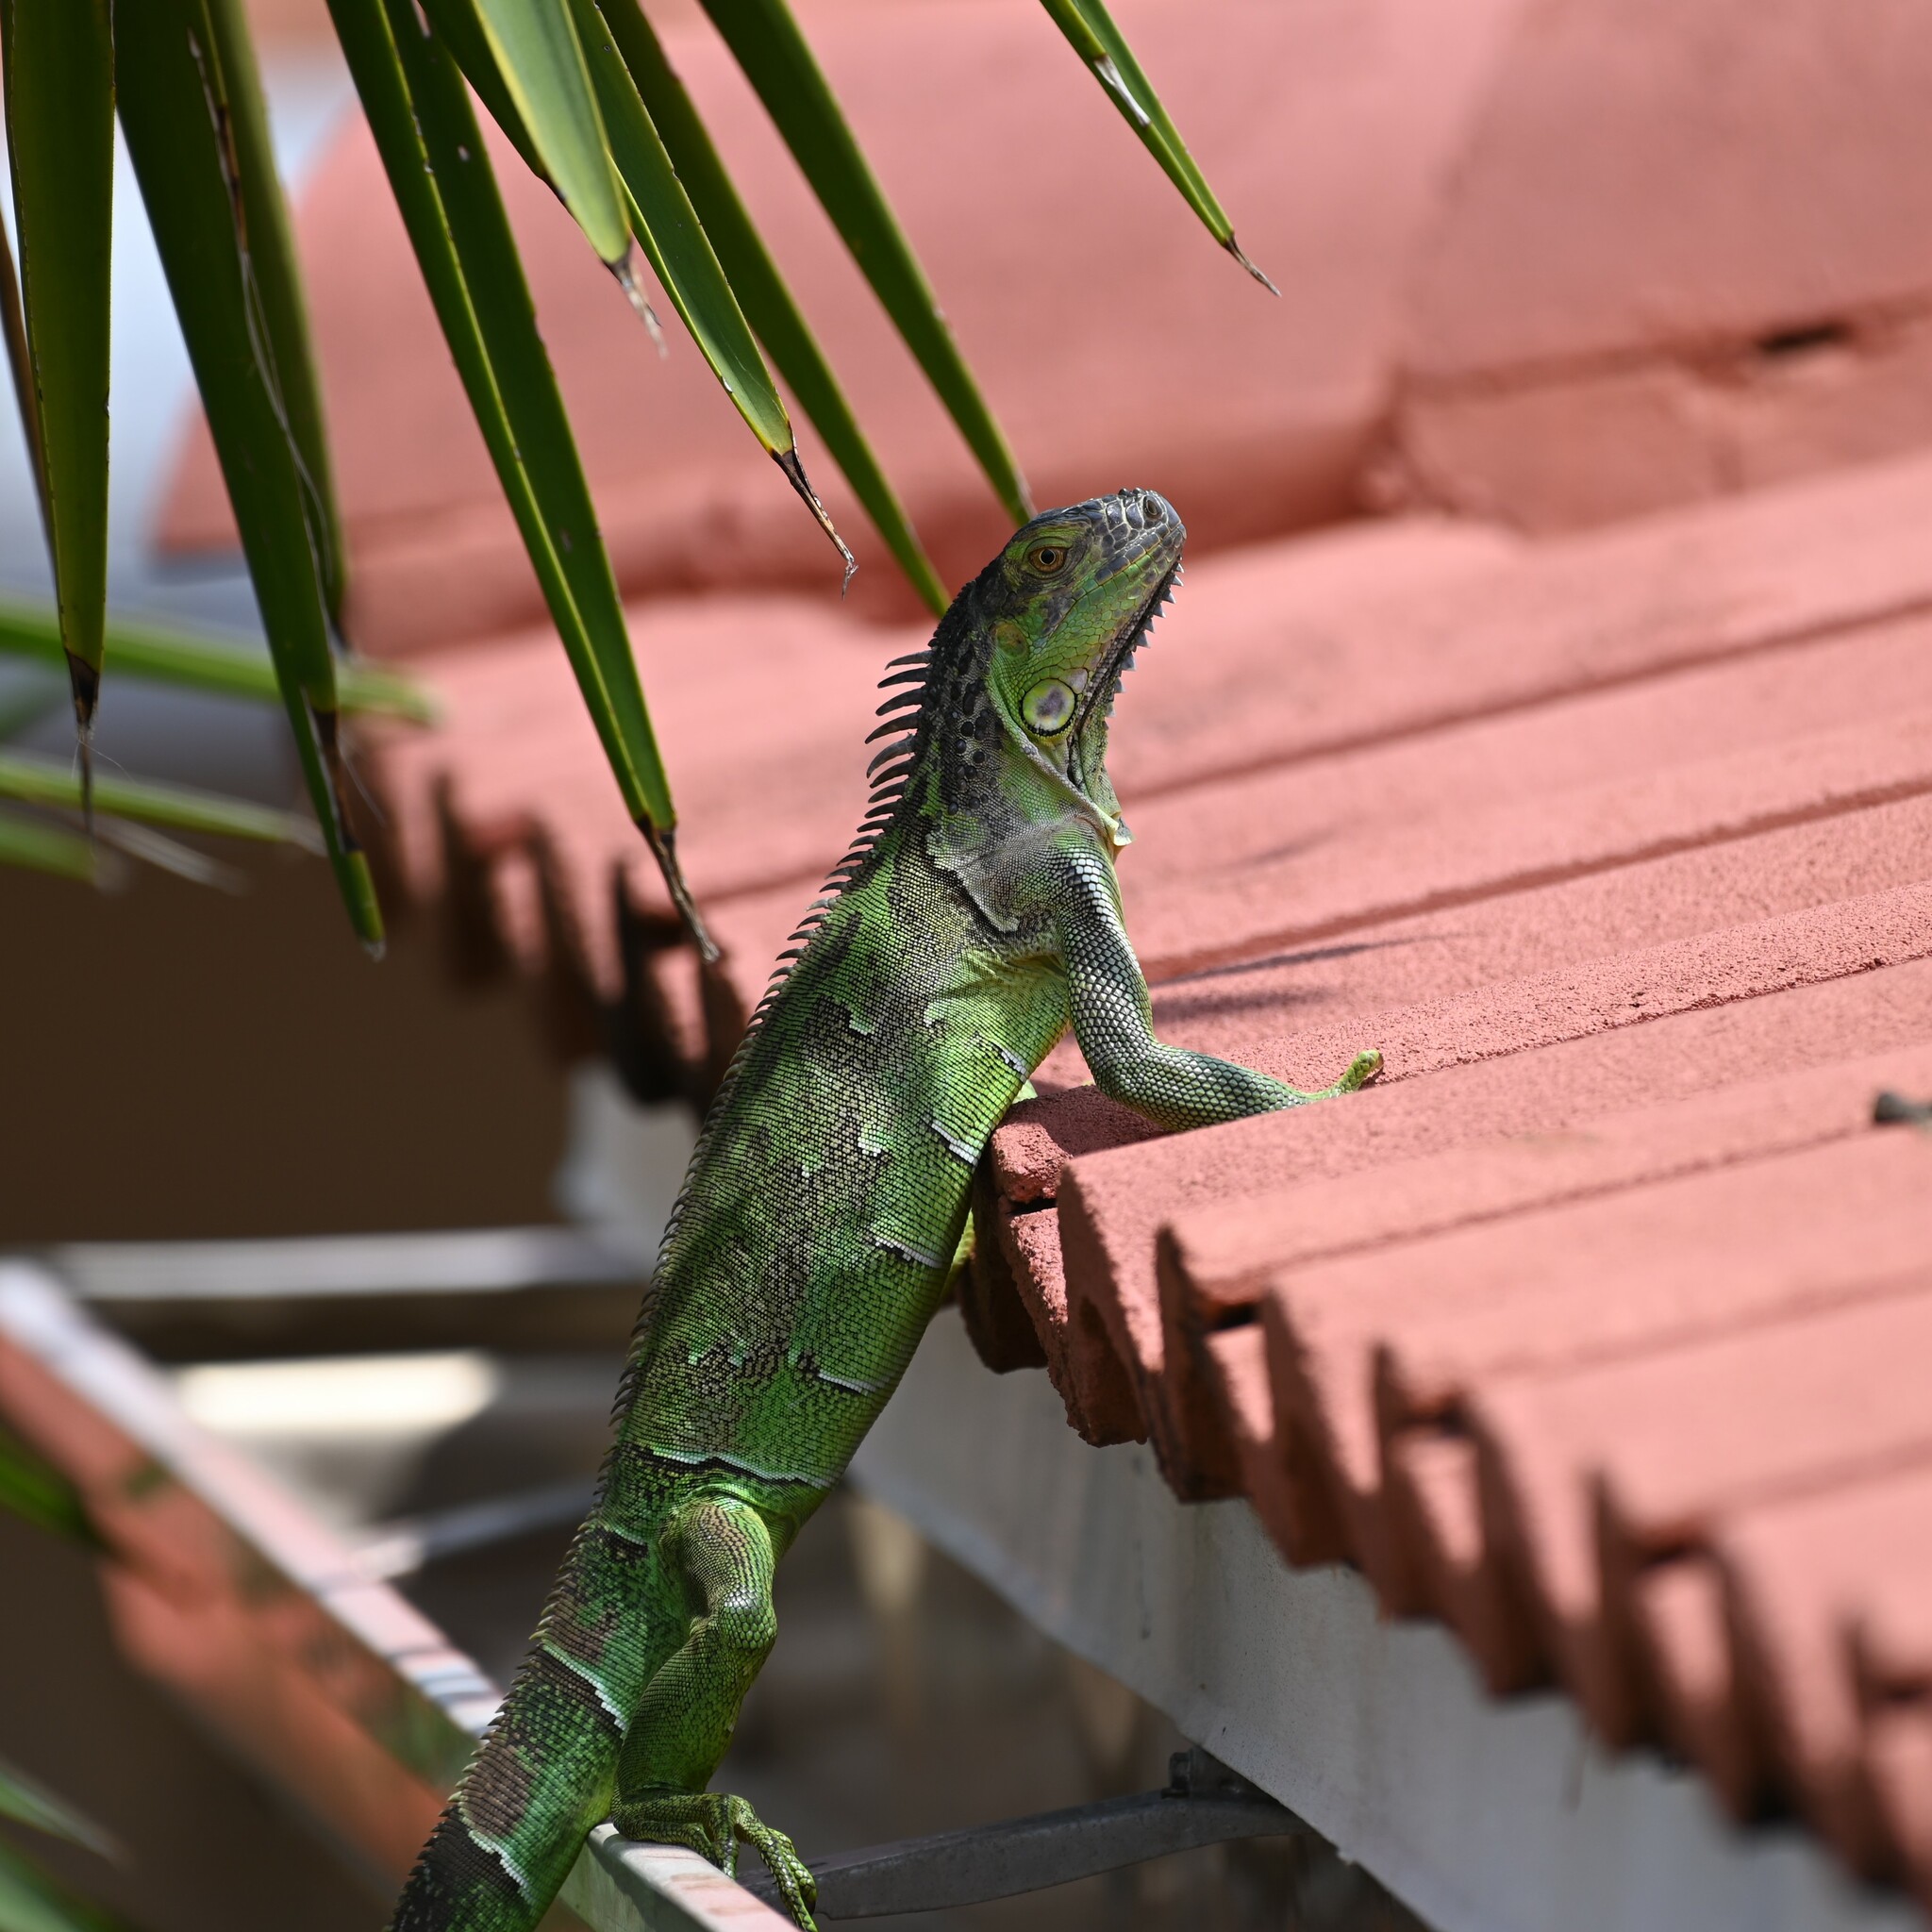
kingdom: Animalia
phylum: Chordata
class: Squamata
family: Iguanidae
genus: Iguana
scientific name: Iguana iguana
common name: Green iguana
